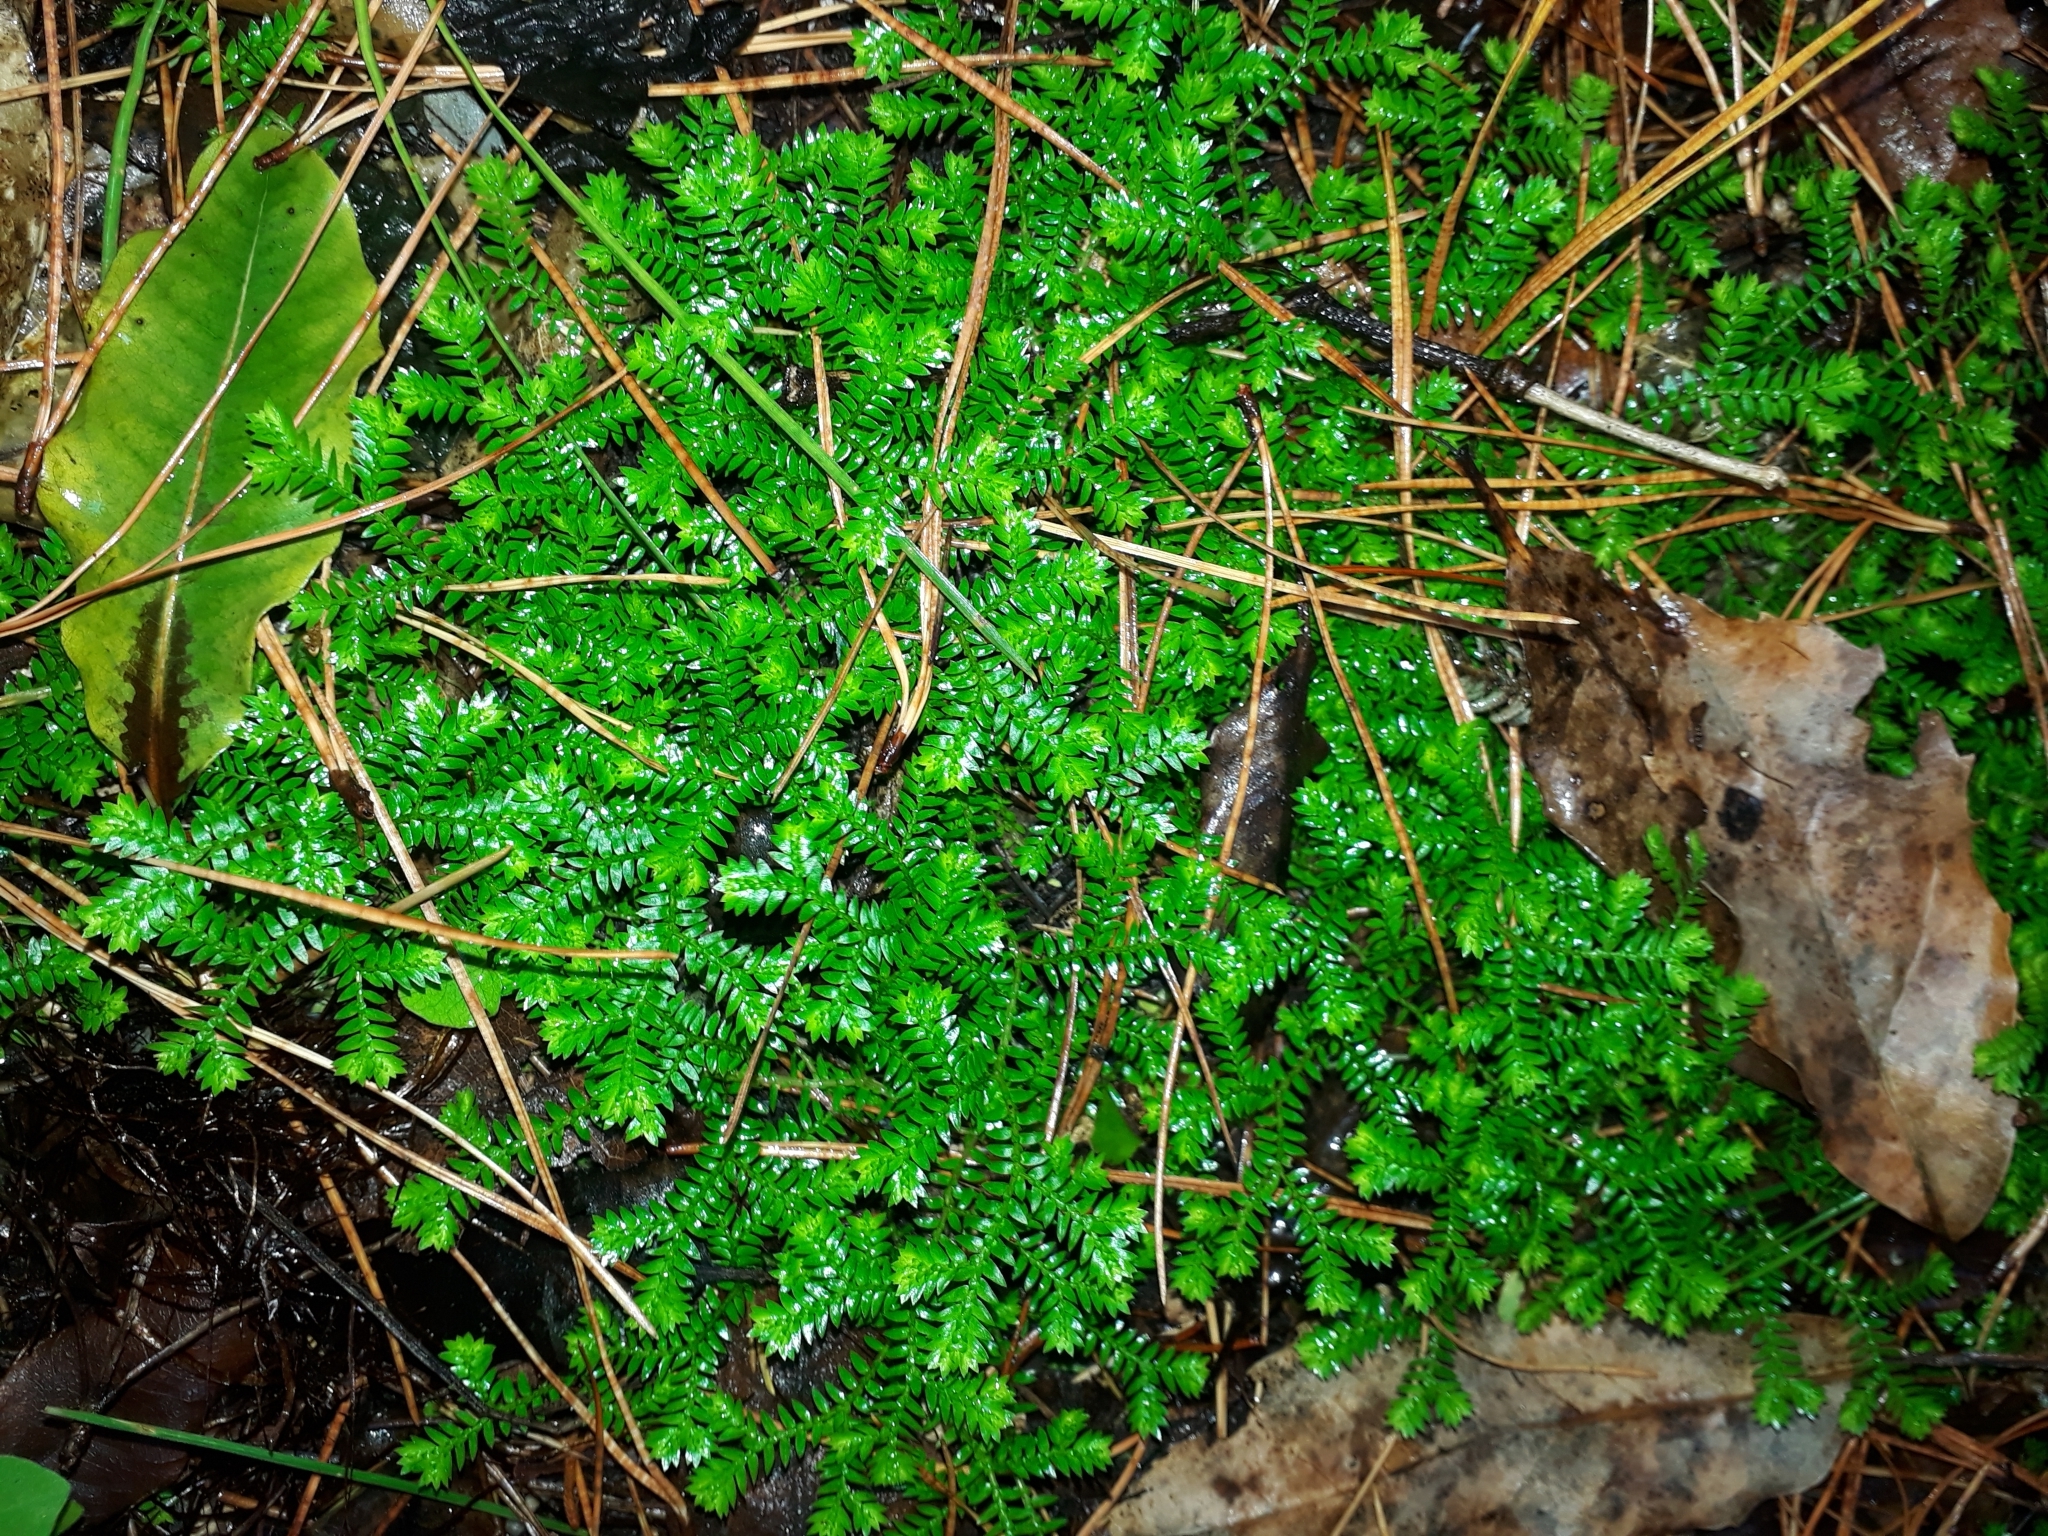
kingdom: Plantae
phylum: Tracheophyta
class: Lycopodiopsida
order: Selaginellales
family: Selaginellaceae
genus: Selaginella
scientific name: Selaginella kraussiana
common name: Krauss' spikemoss
